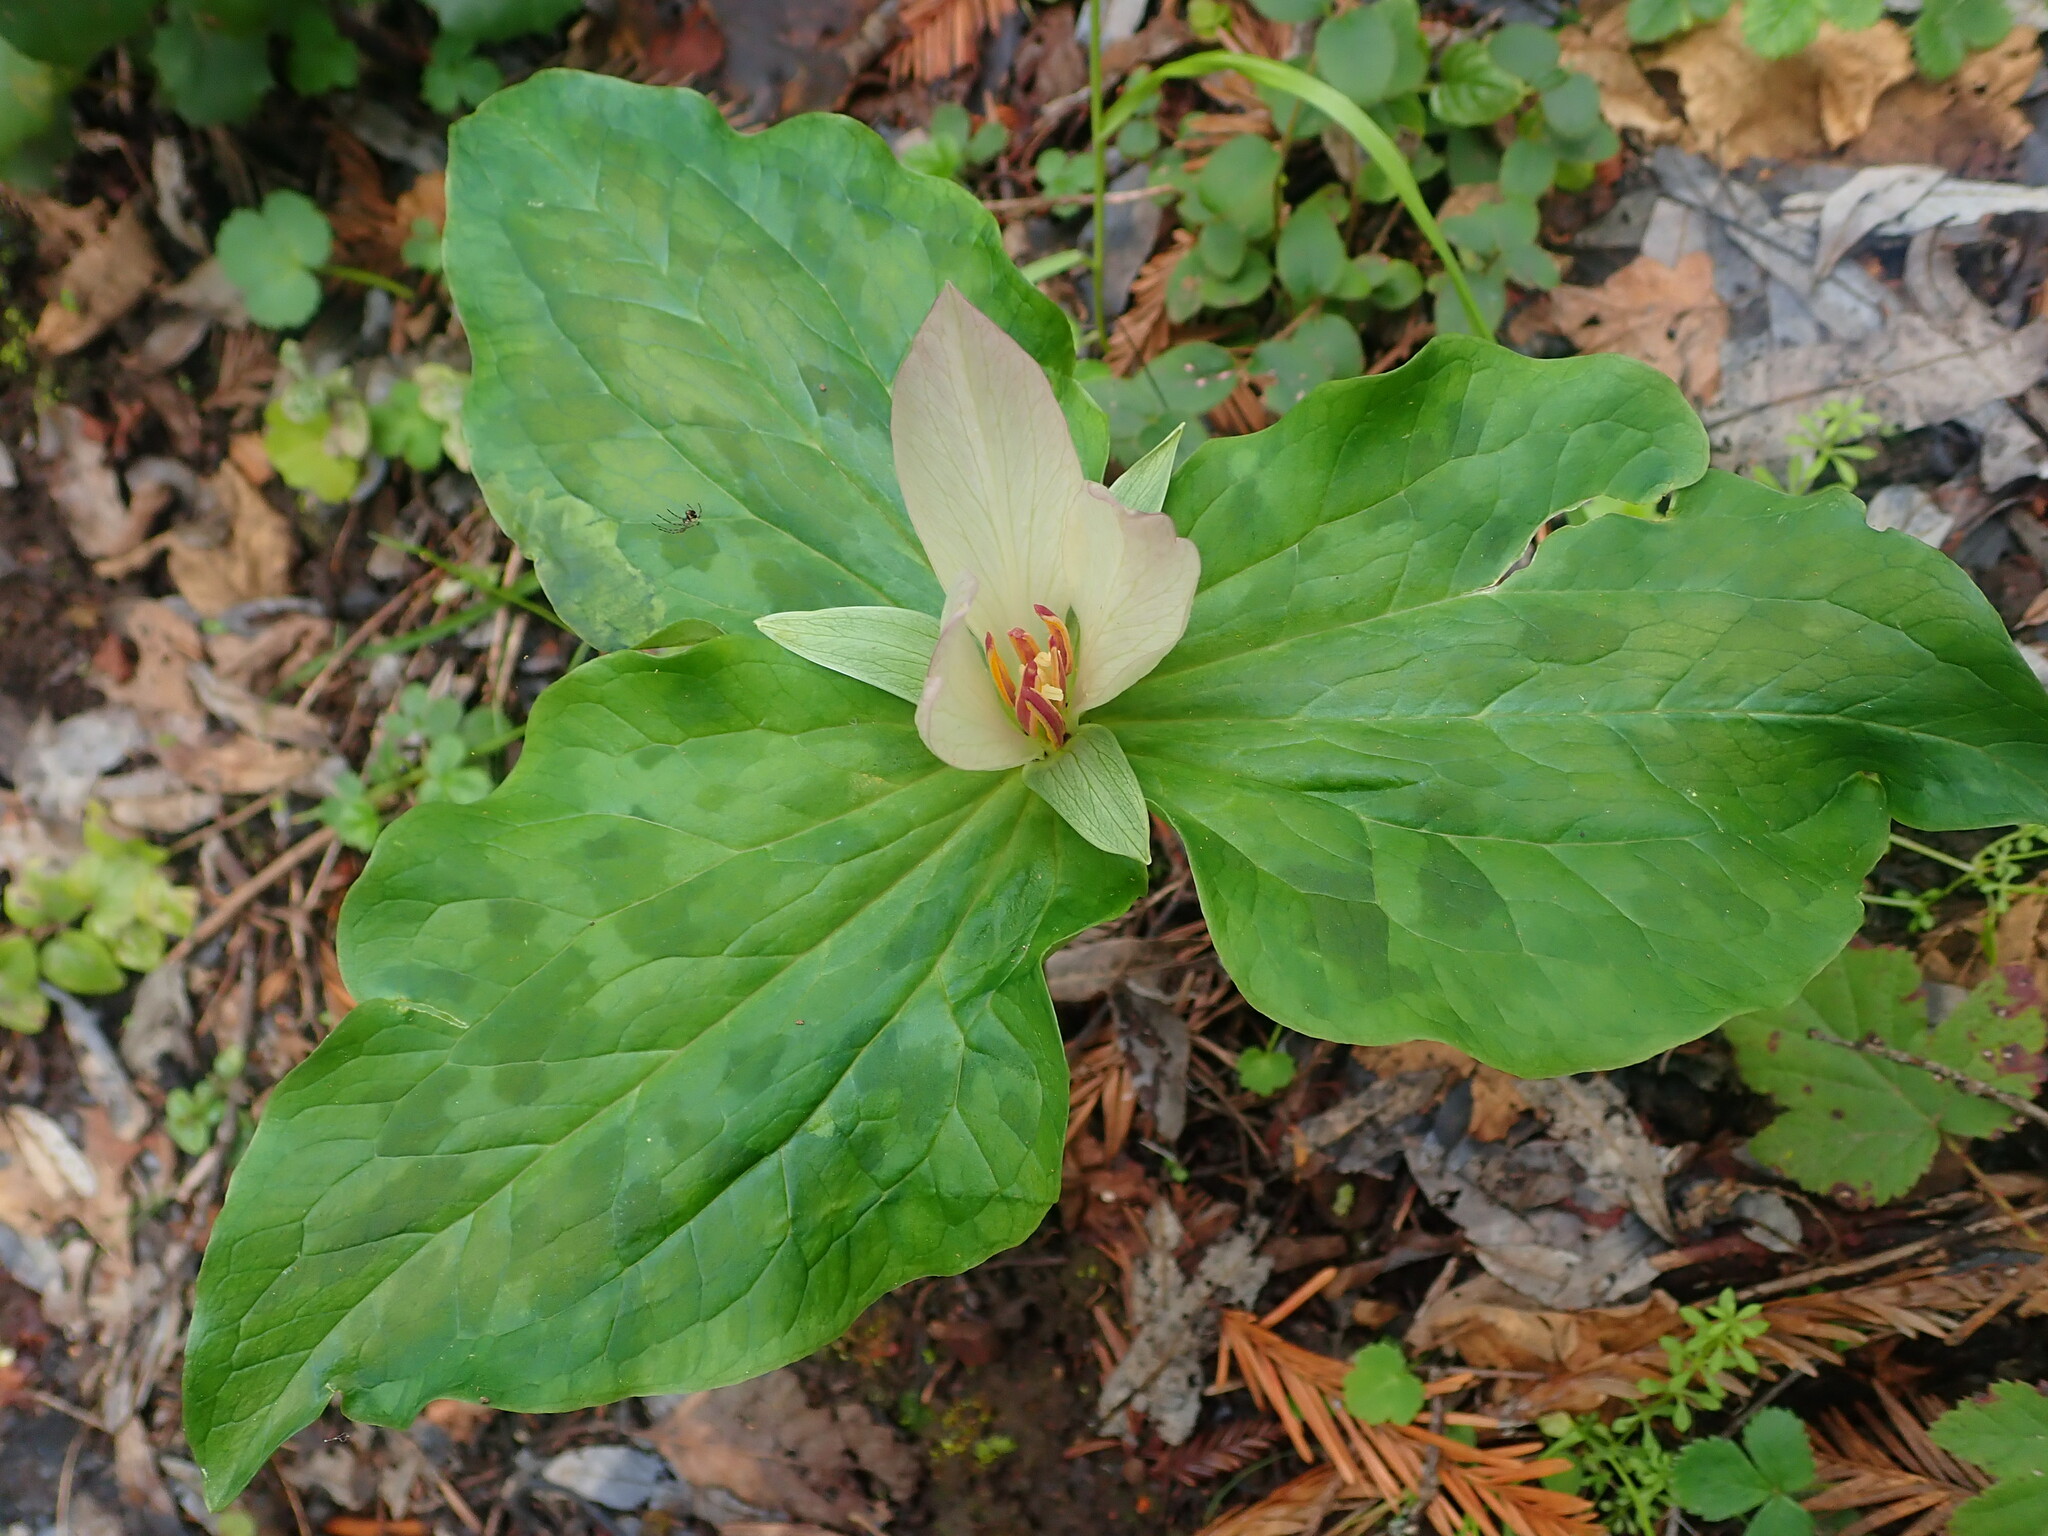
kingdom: Plantae
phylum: Tracheophyta
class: Liliopsida
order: Liliales
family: Melanthiaceae
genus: Trillium
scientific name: Trillium chloropetalum
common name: Giant trillium
